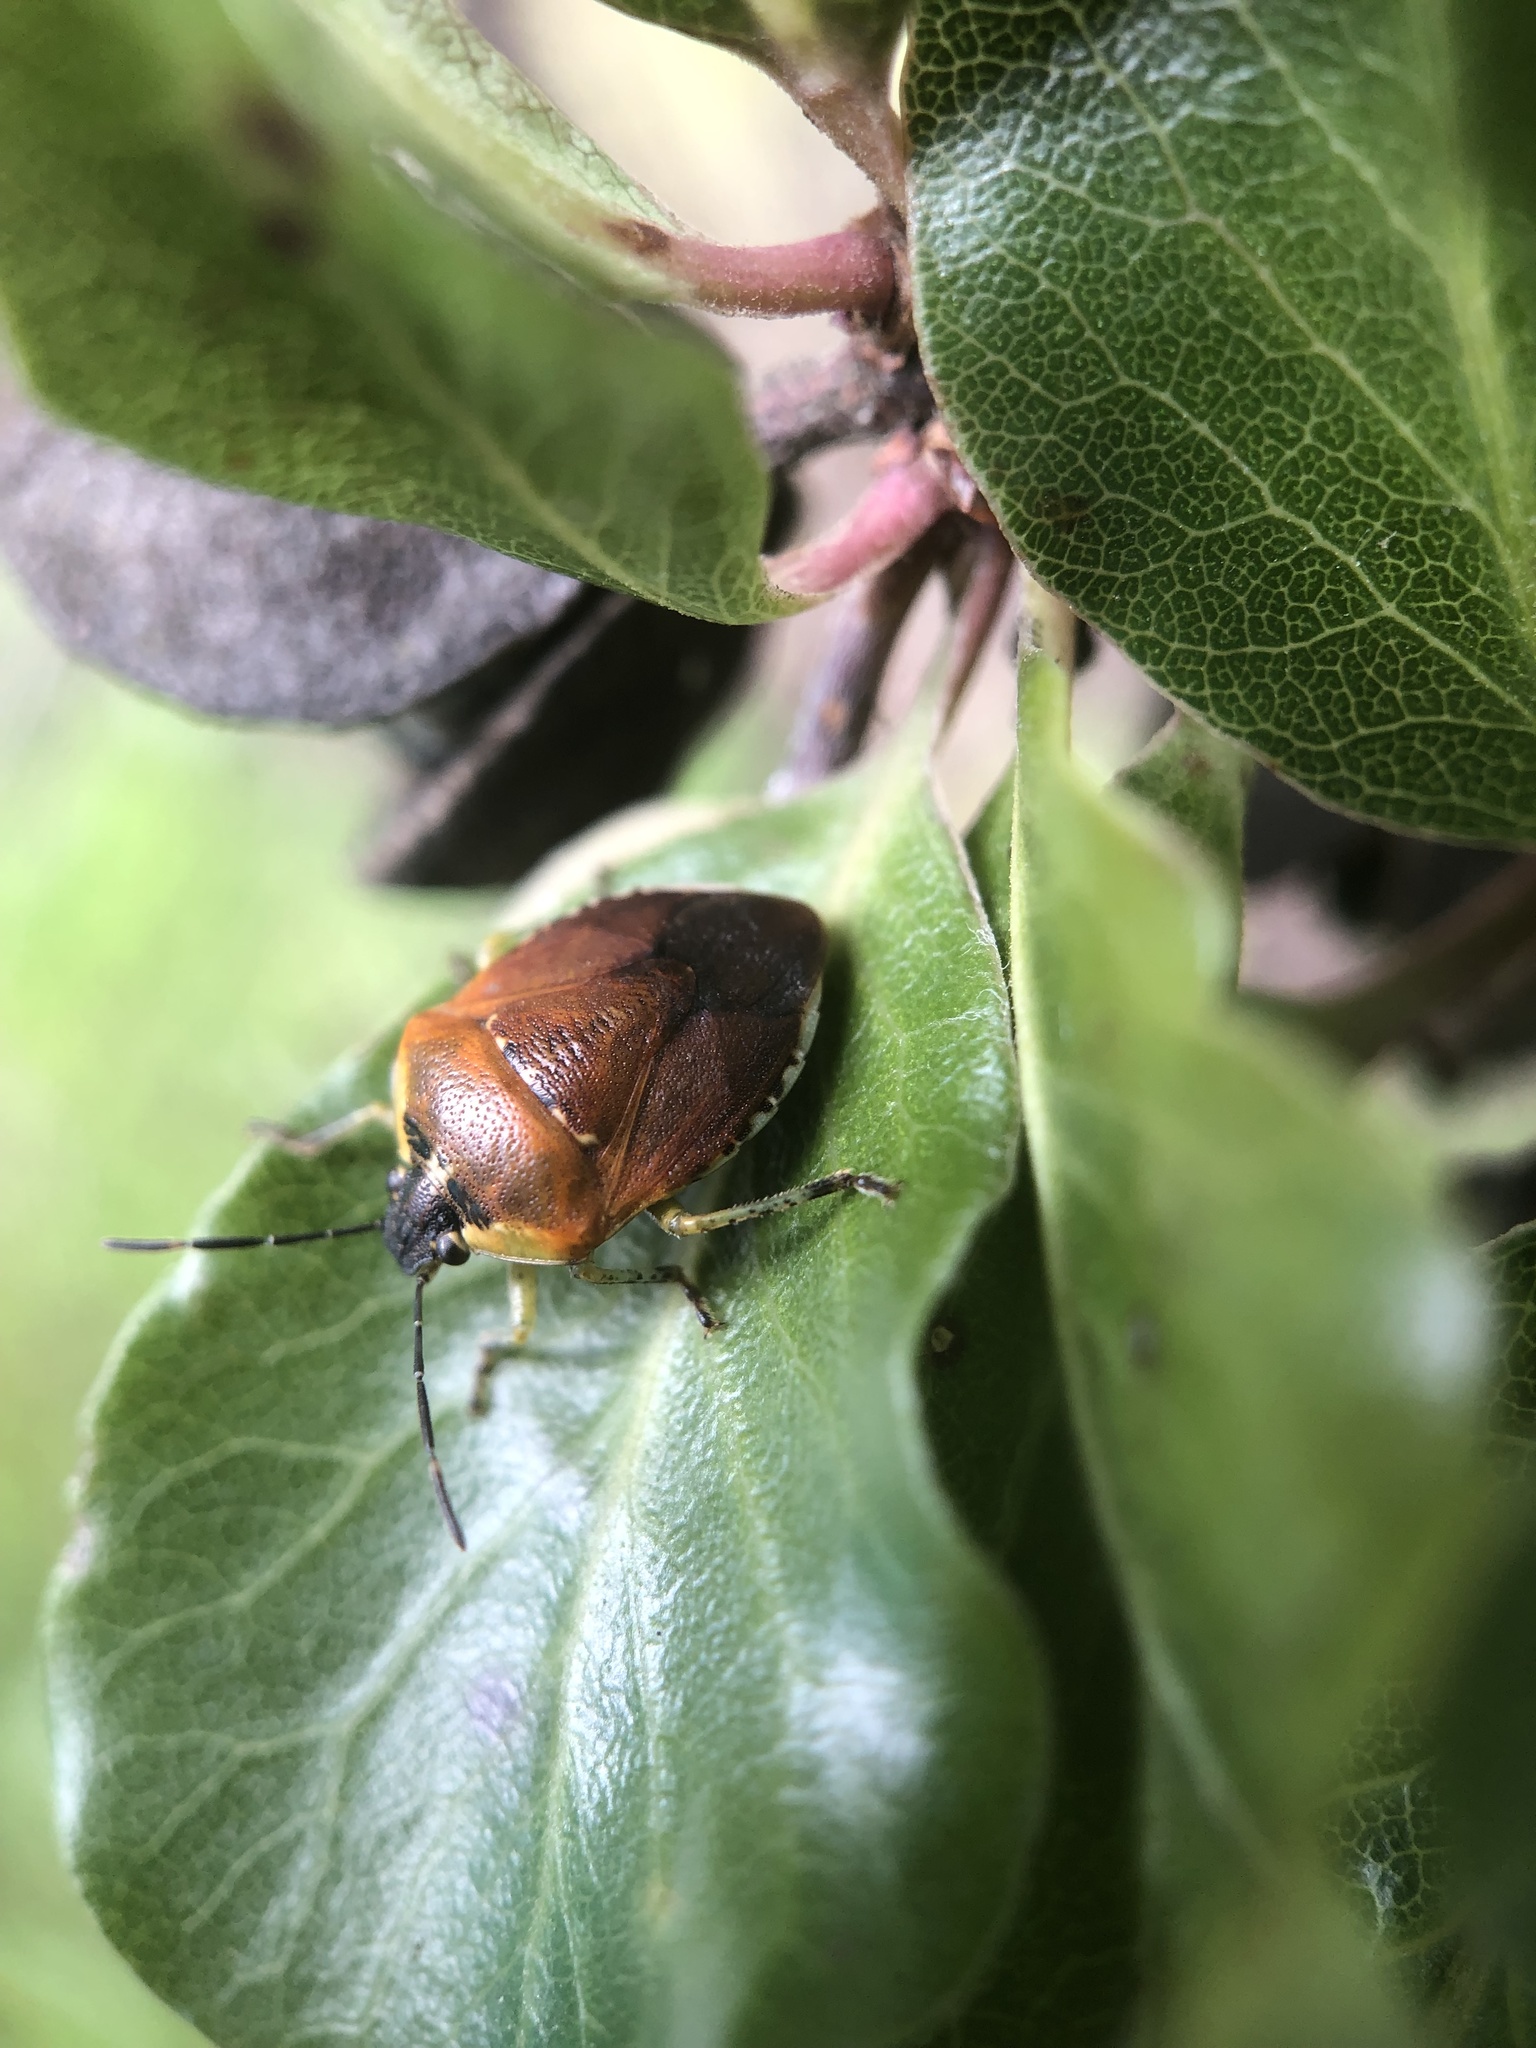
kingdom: Animalia
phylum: Arthropoda
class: Insecta
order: Hemiptera
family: Pentatomidae
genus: Monteithiella
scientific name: Monteithiella
